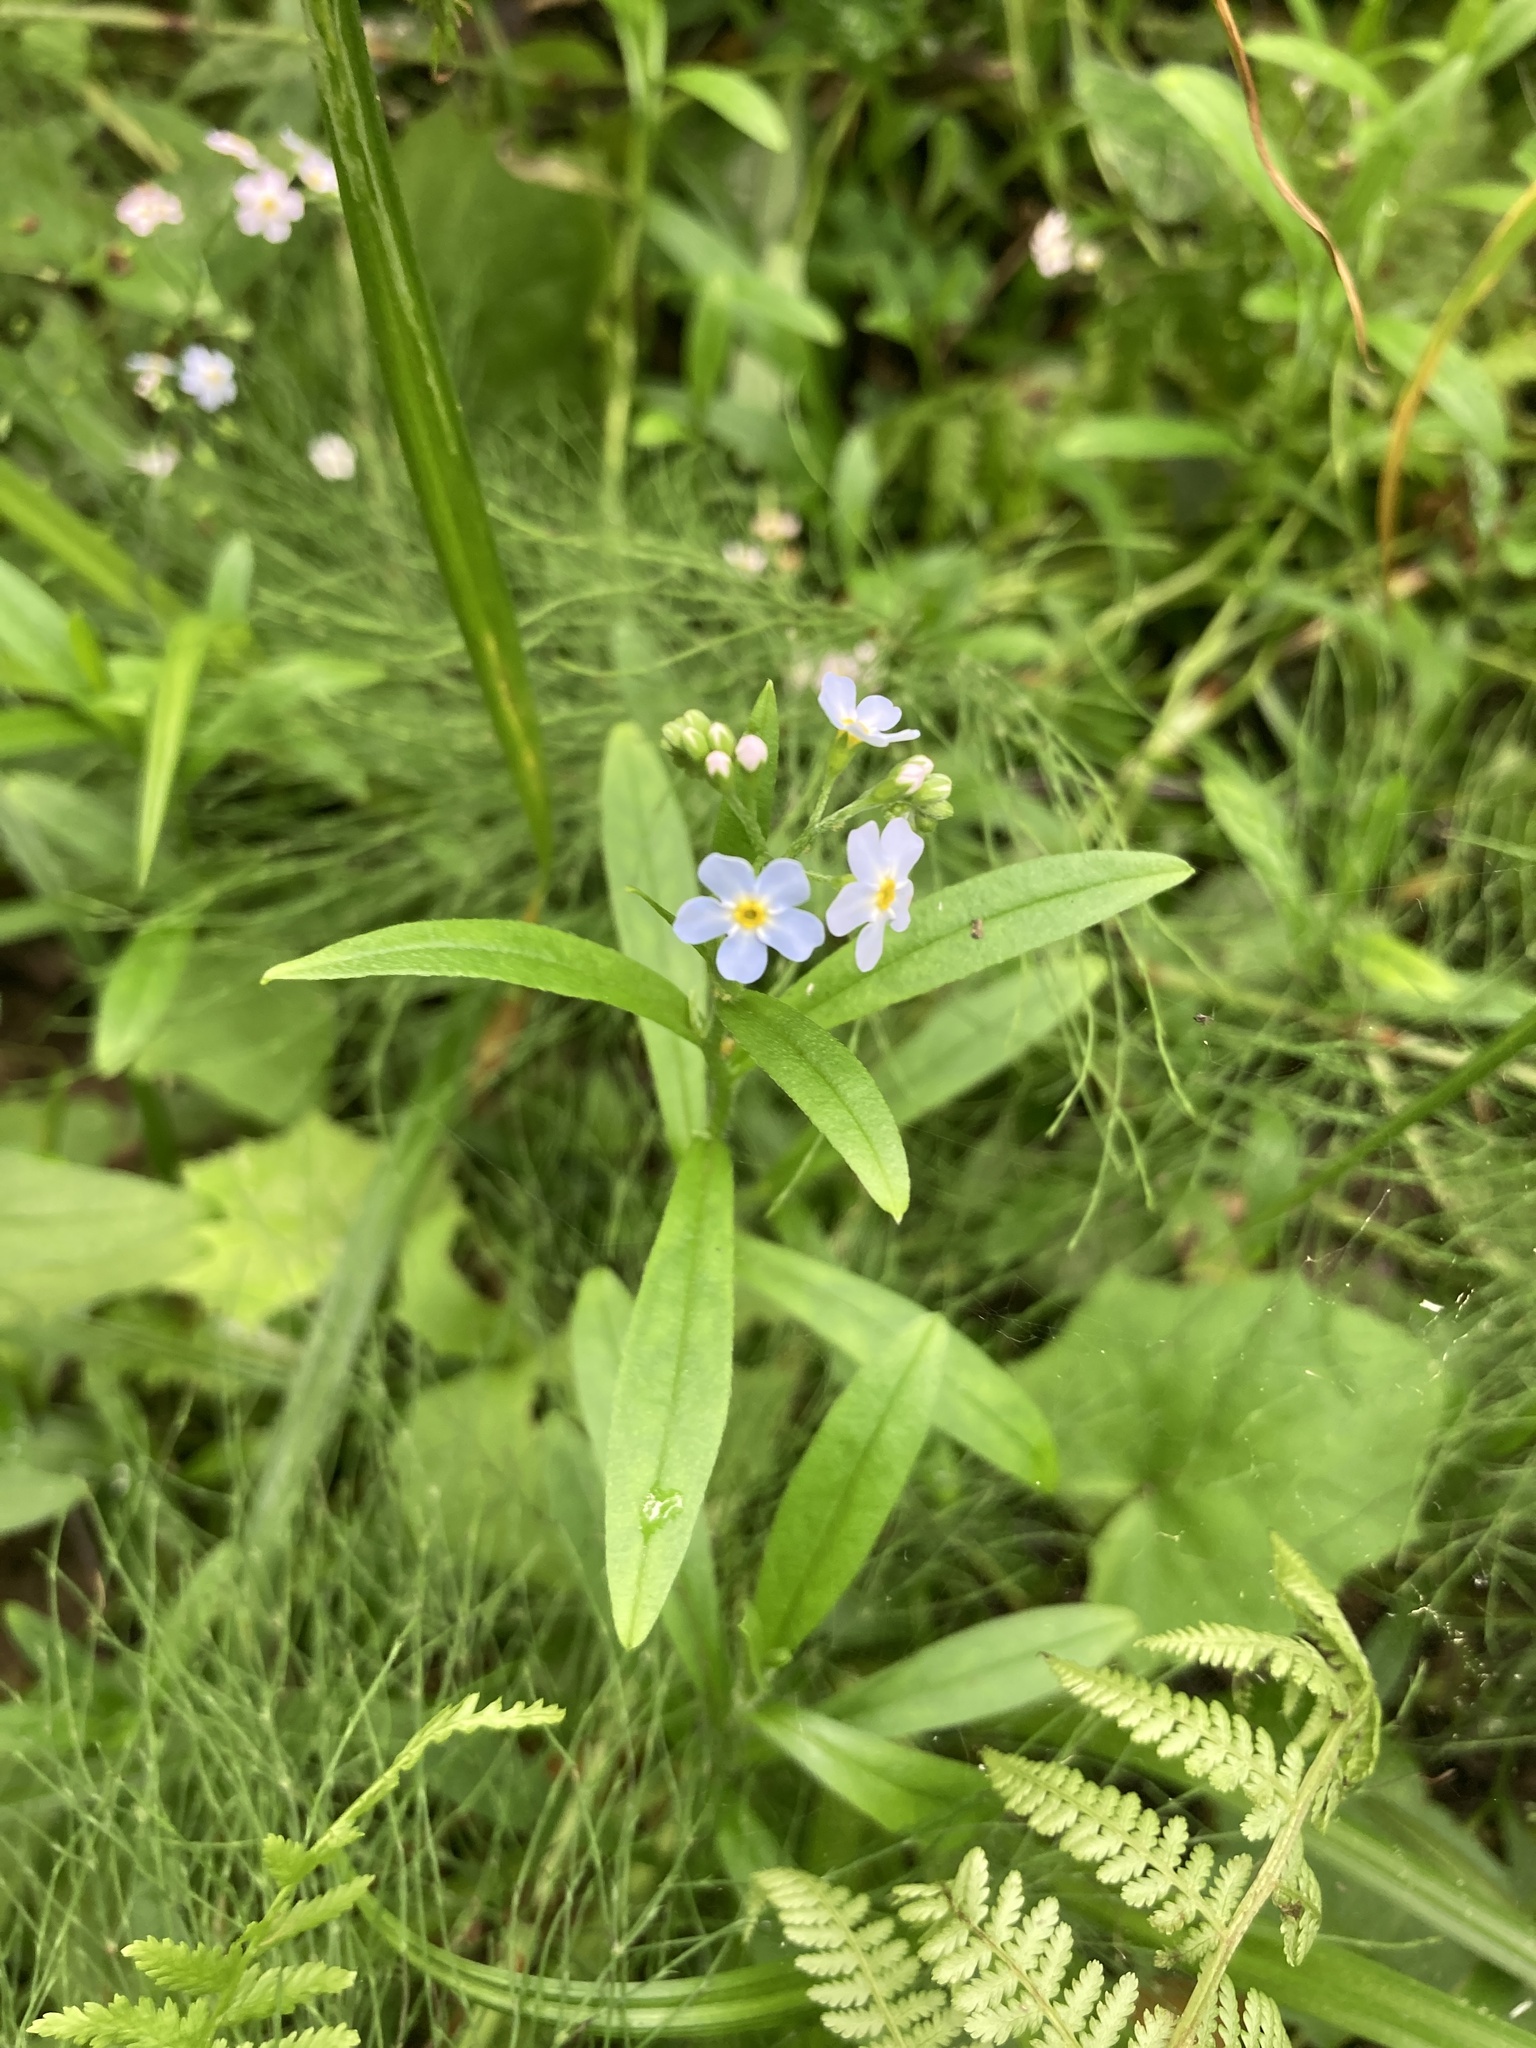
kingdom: Plantae
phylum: Tracheophyta
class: Magnoliopsida
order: Boraginales
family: Boraginaceae
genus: Myosotis
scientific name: Myosotis scorpioides
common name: Water forget-me-not
